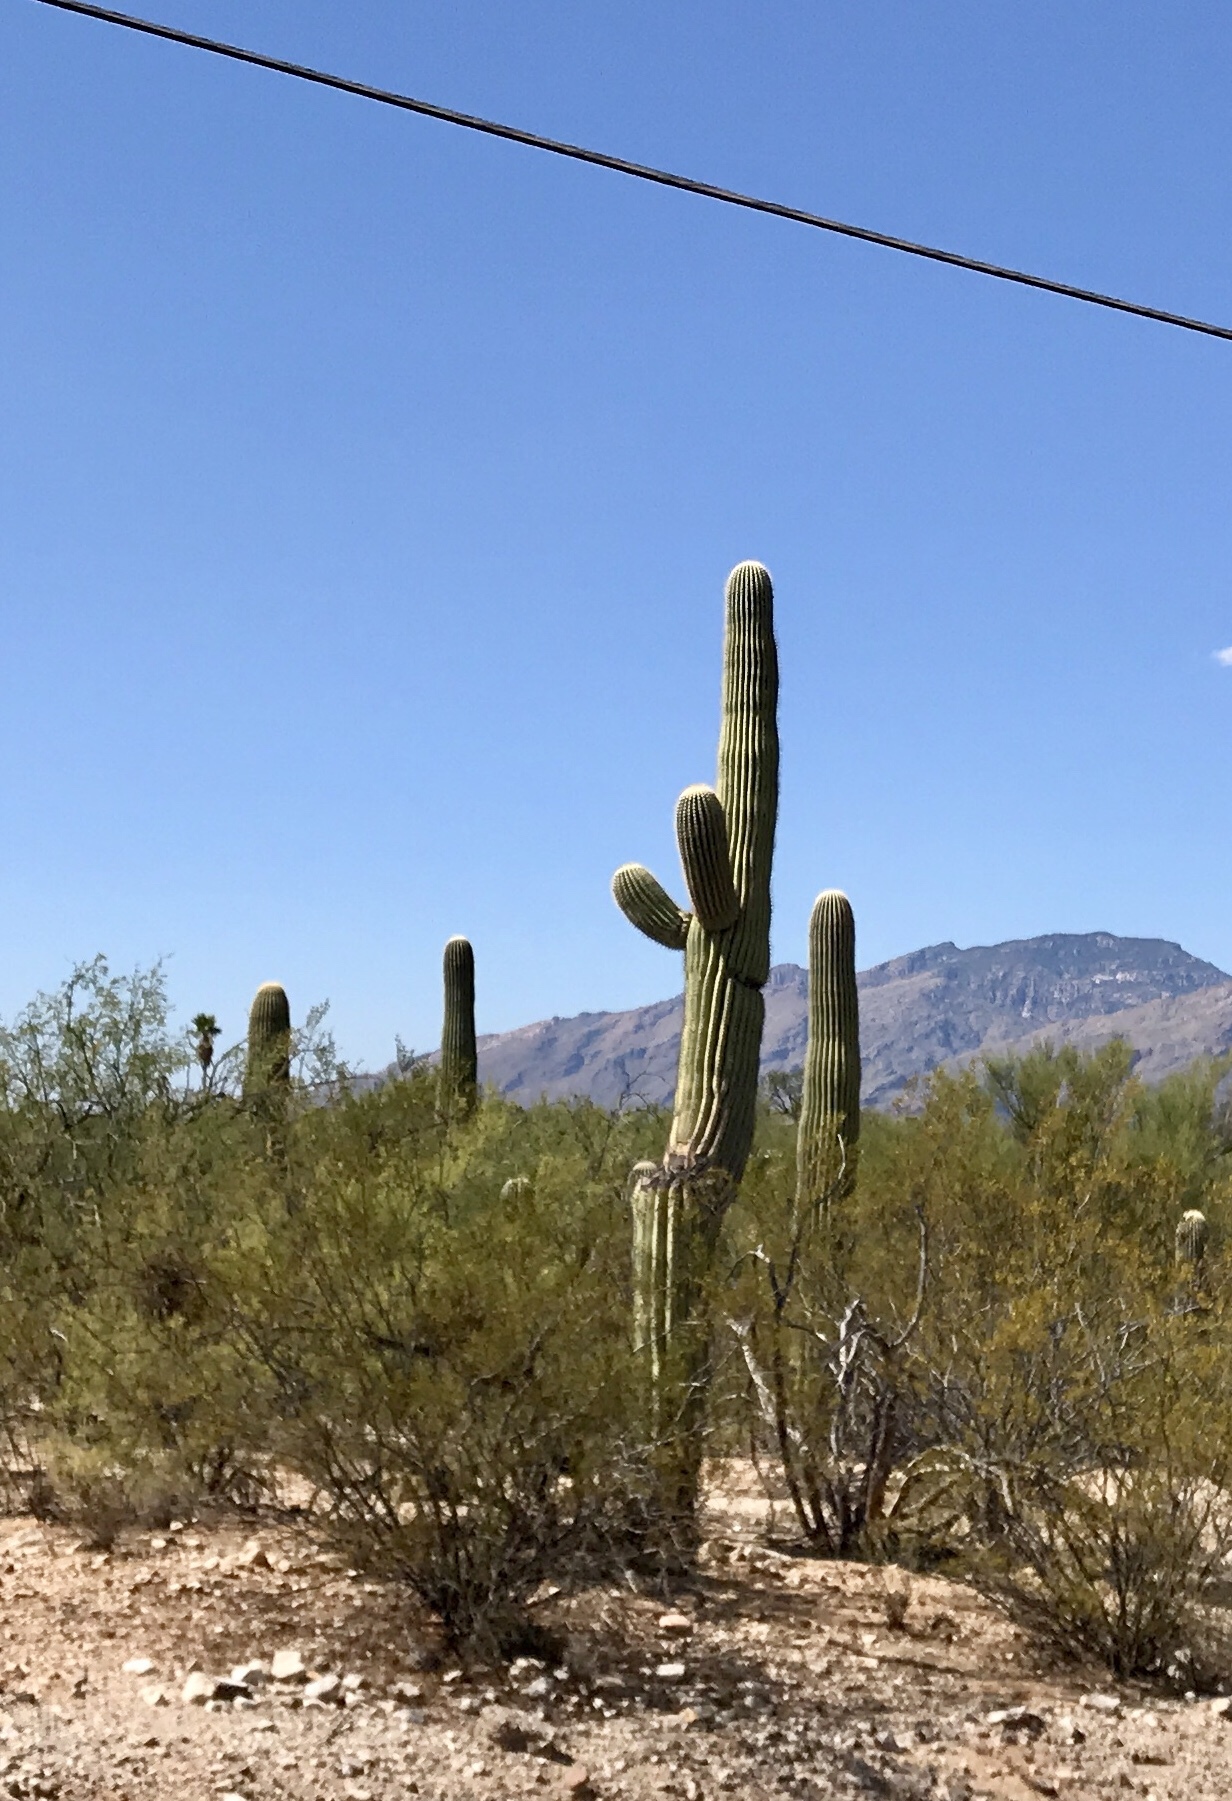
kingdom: Plantae
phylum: Tracheophyta
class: Magnoliopsida
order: Caryophyllales
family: Cactaceae
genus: Carnegiea
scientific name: Carnegiea gigantea
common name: Saguaro
